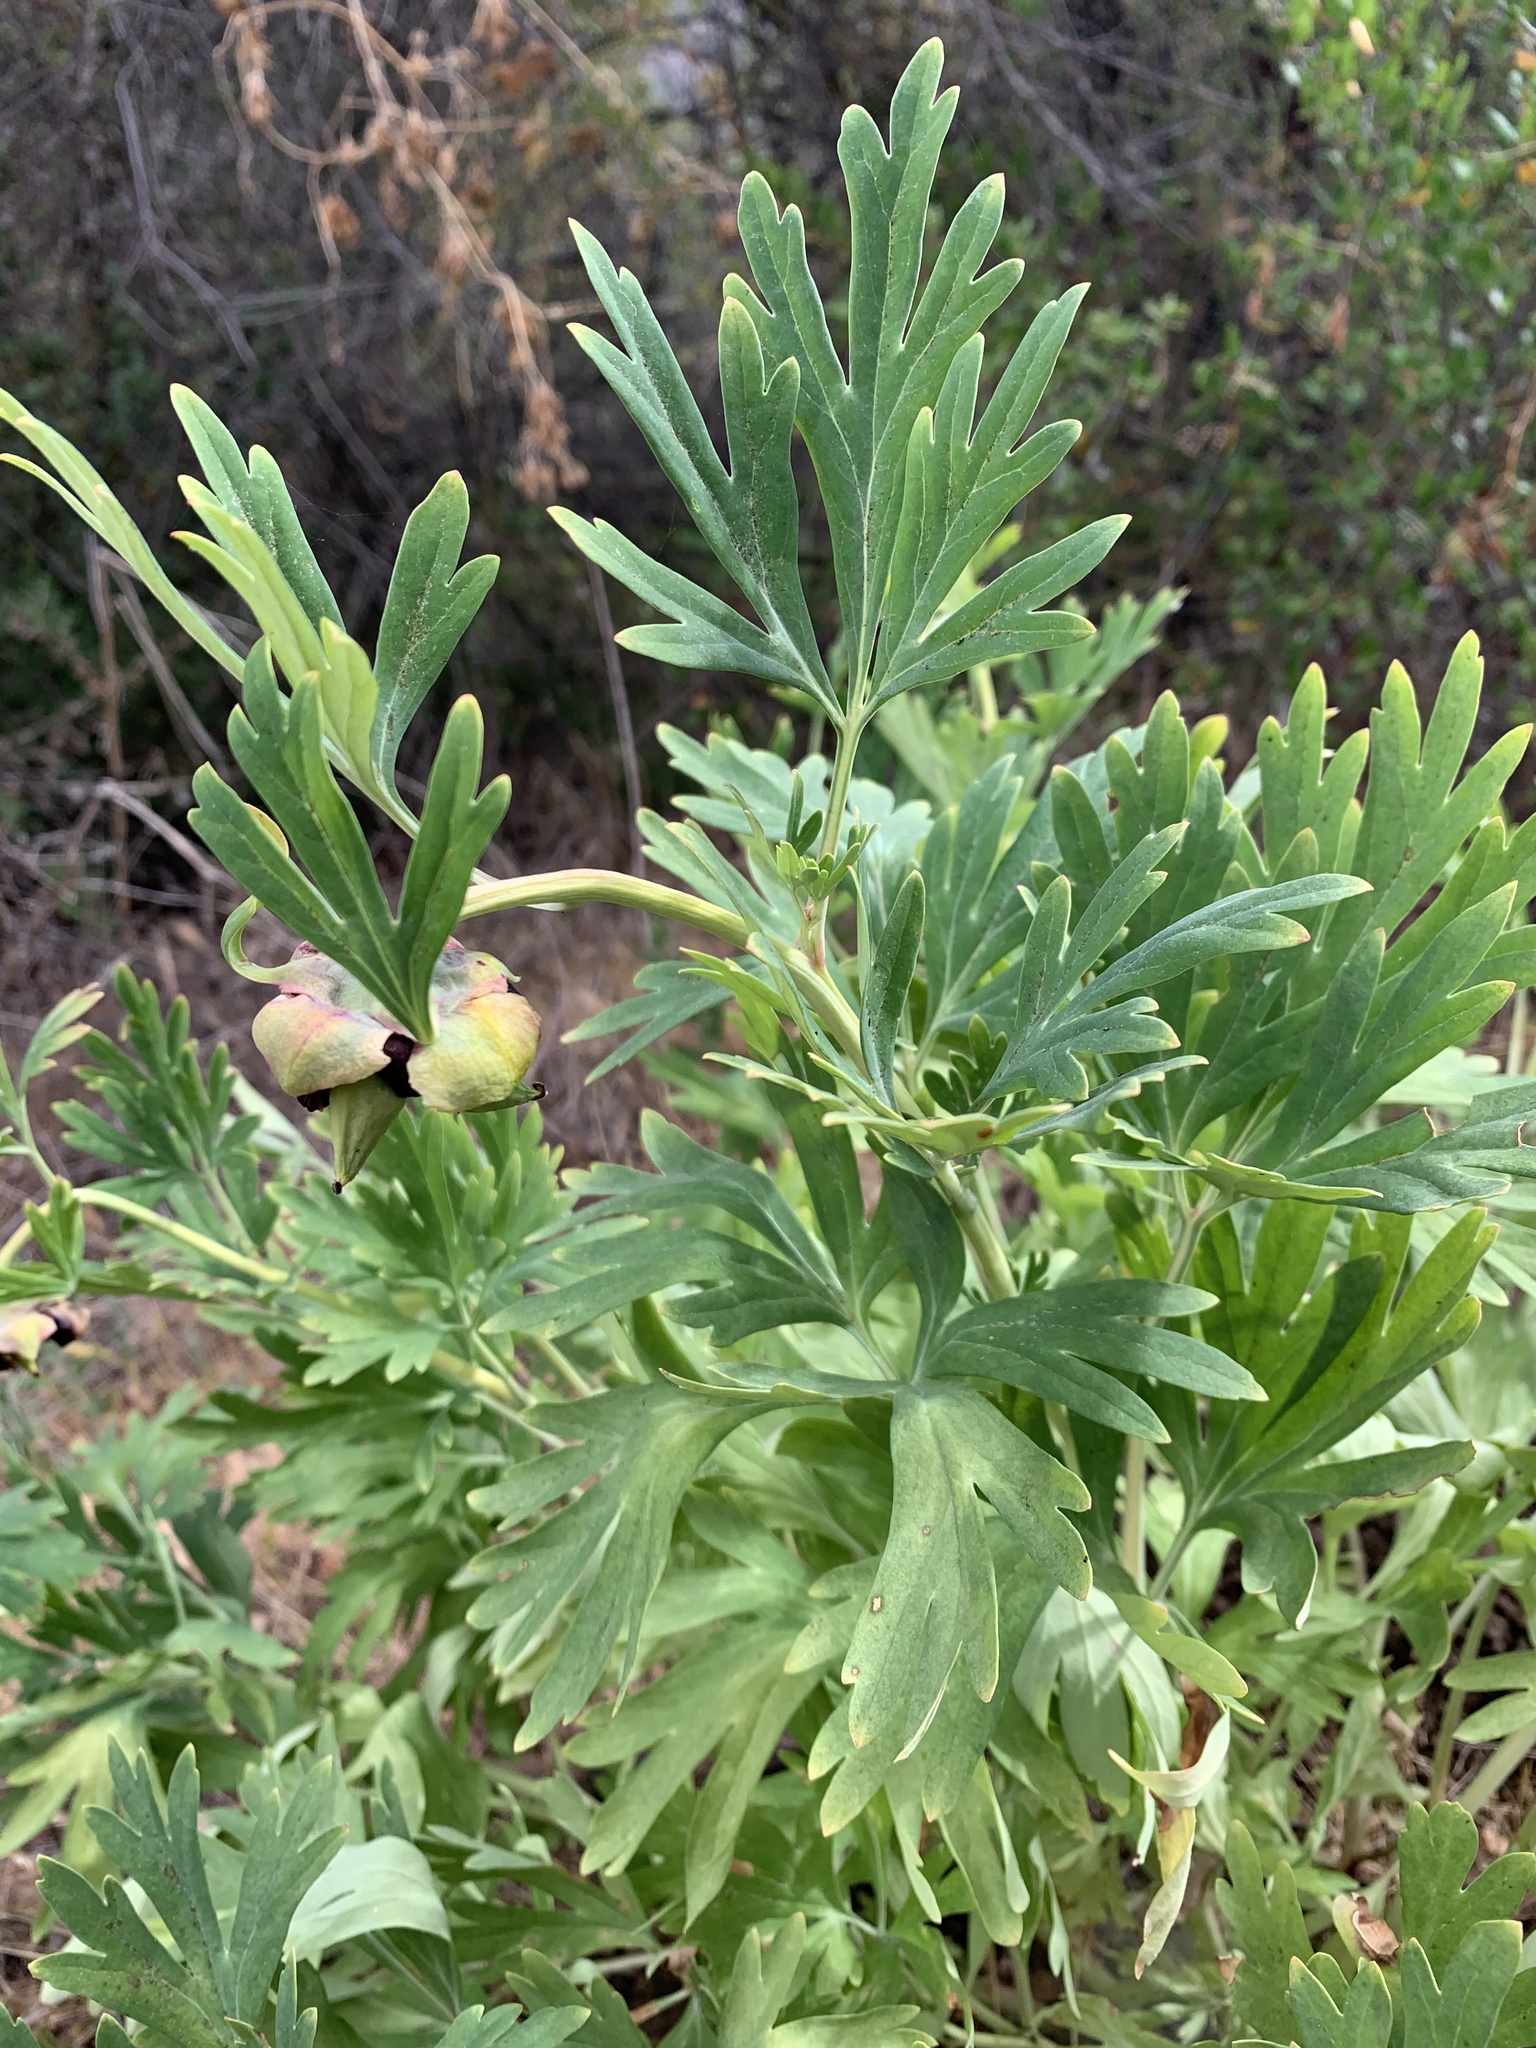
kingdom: Plantae
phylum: Tracheophyta
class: Magnoliopsida
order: Saxifragales
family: Paeoniaceae
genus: Paeonia
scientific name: Paeonia californica
